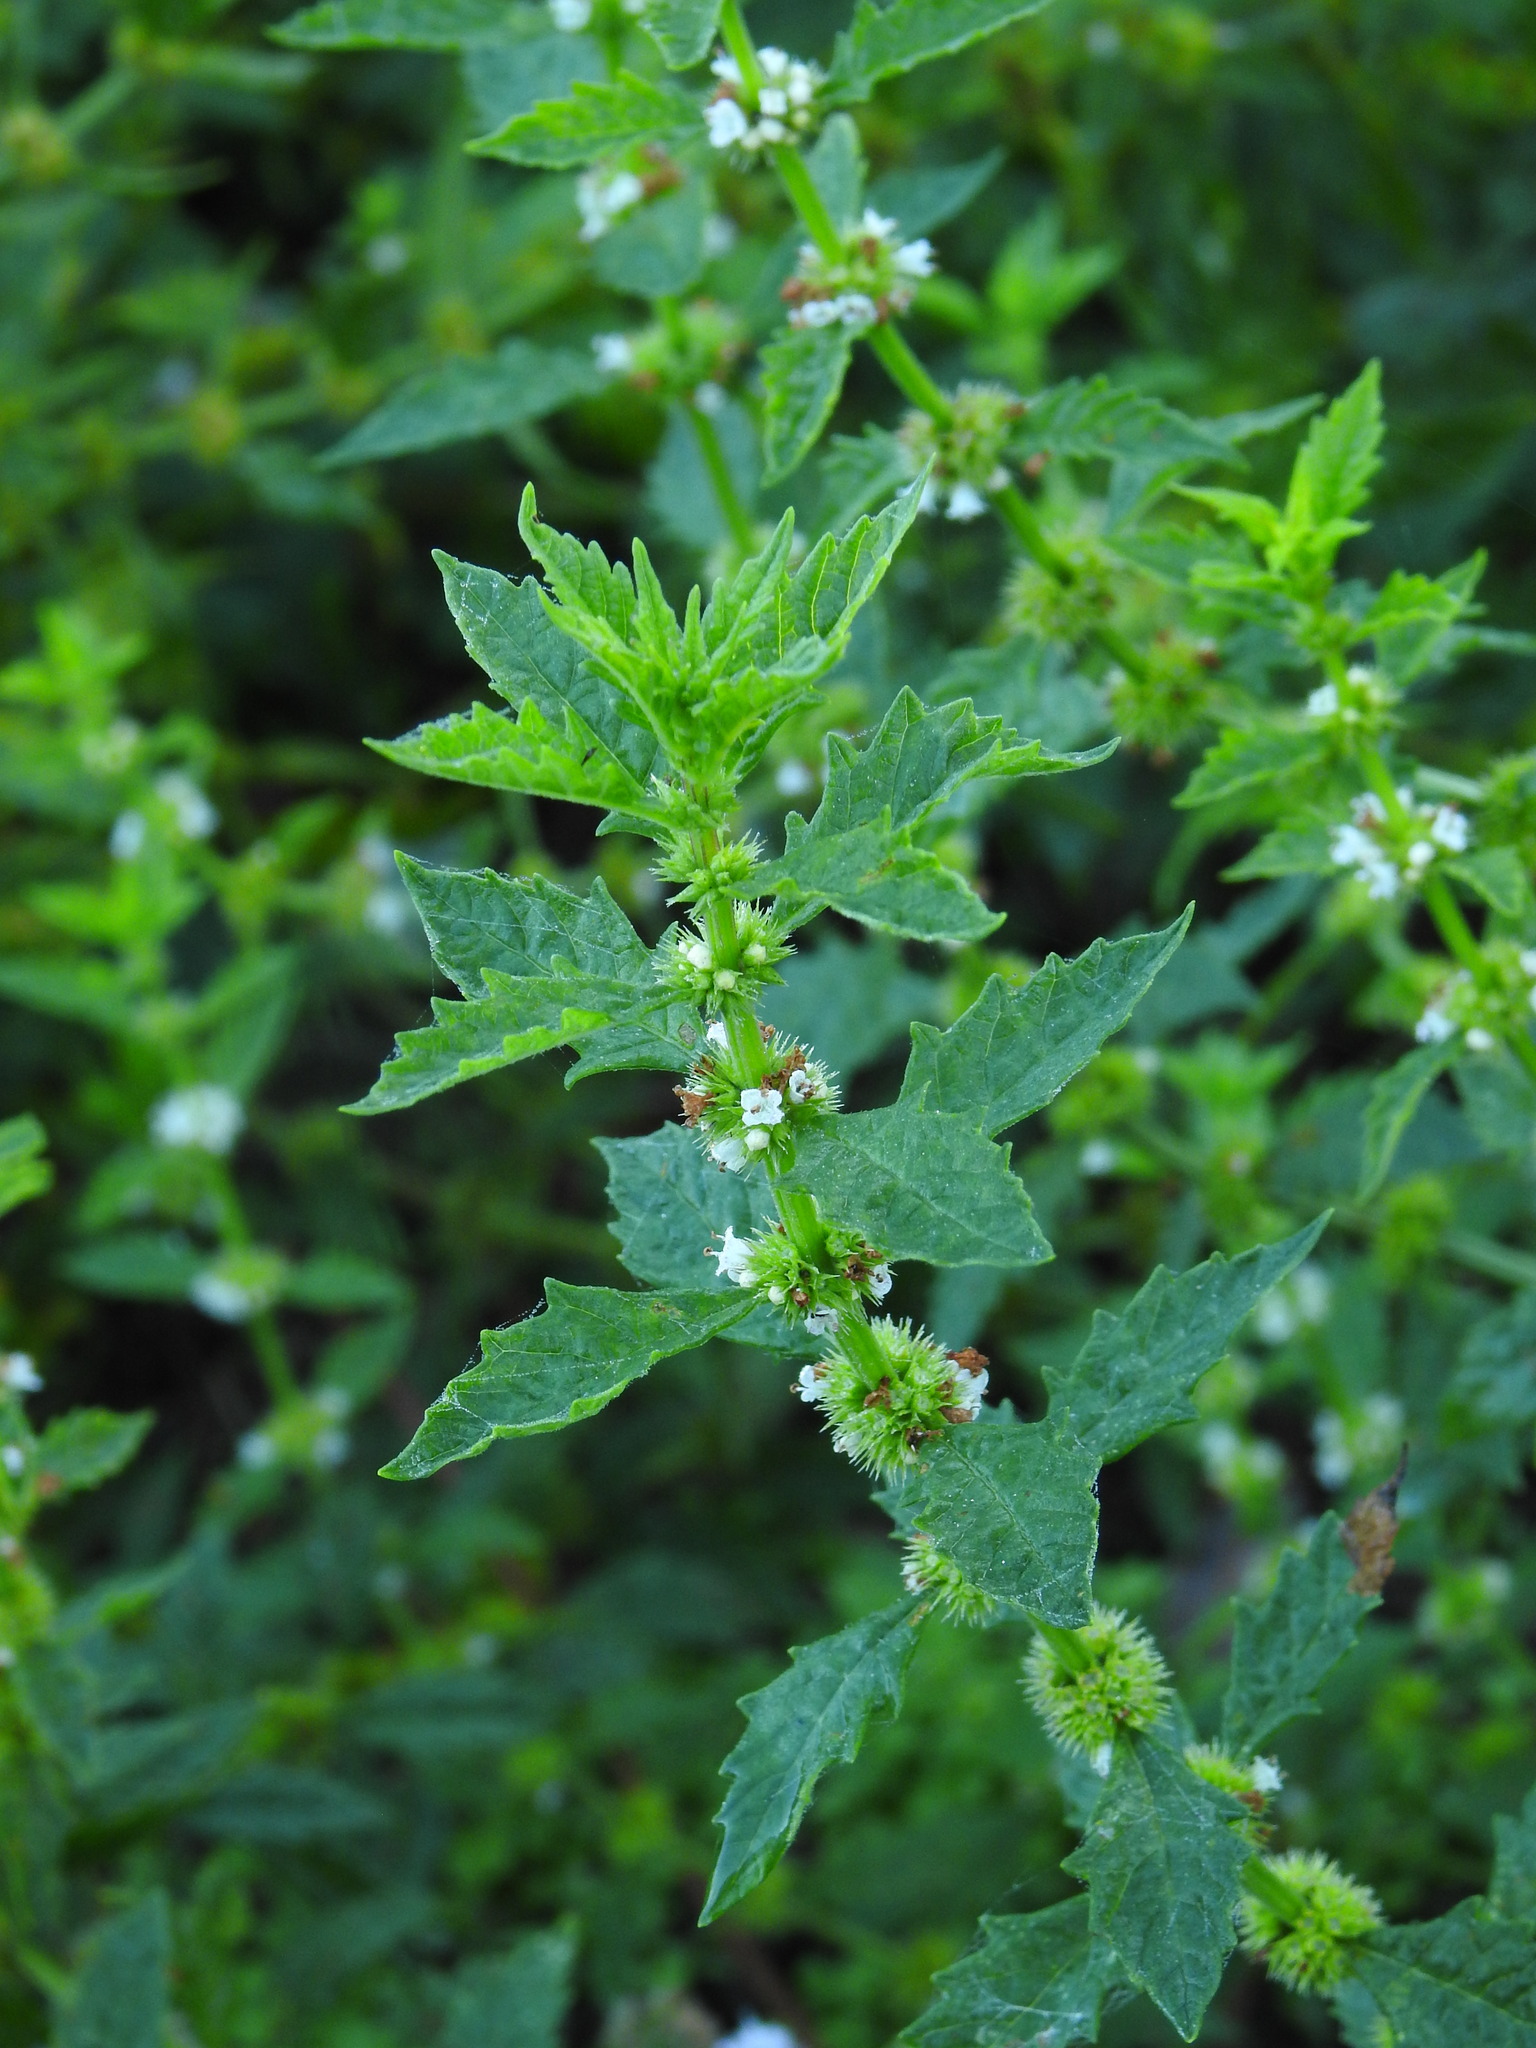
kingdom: Plantae
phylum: Tracheophyta
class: Magnoliopsida
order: Lamiales
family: Lamiaceae
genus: Lycopus
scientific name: Lycopus europaeus
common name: European bugleweed
